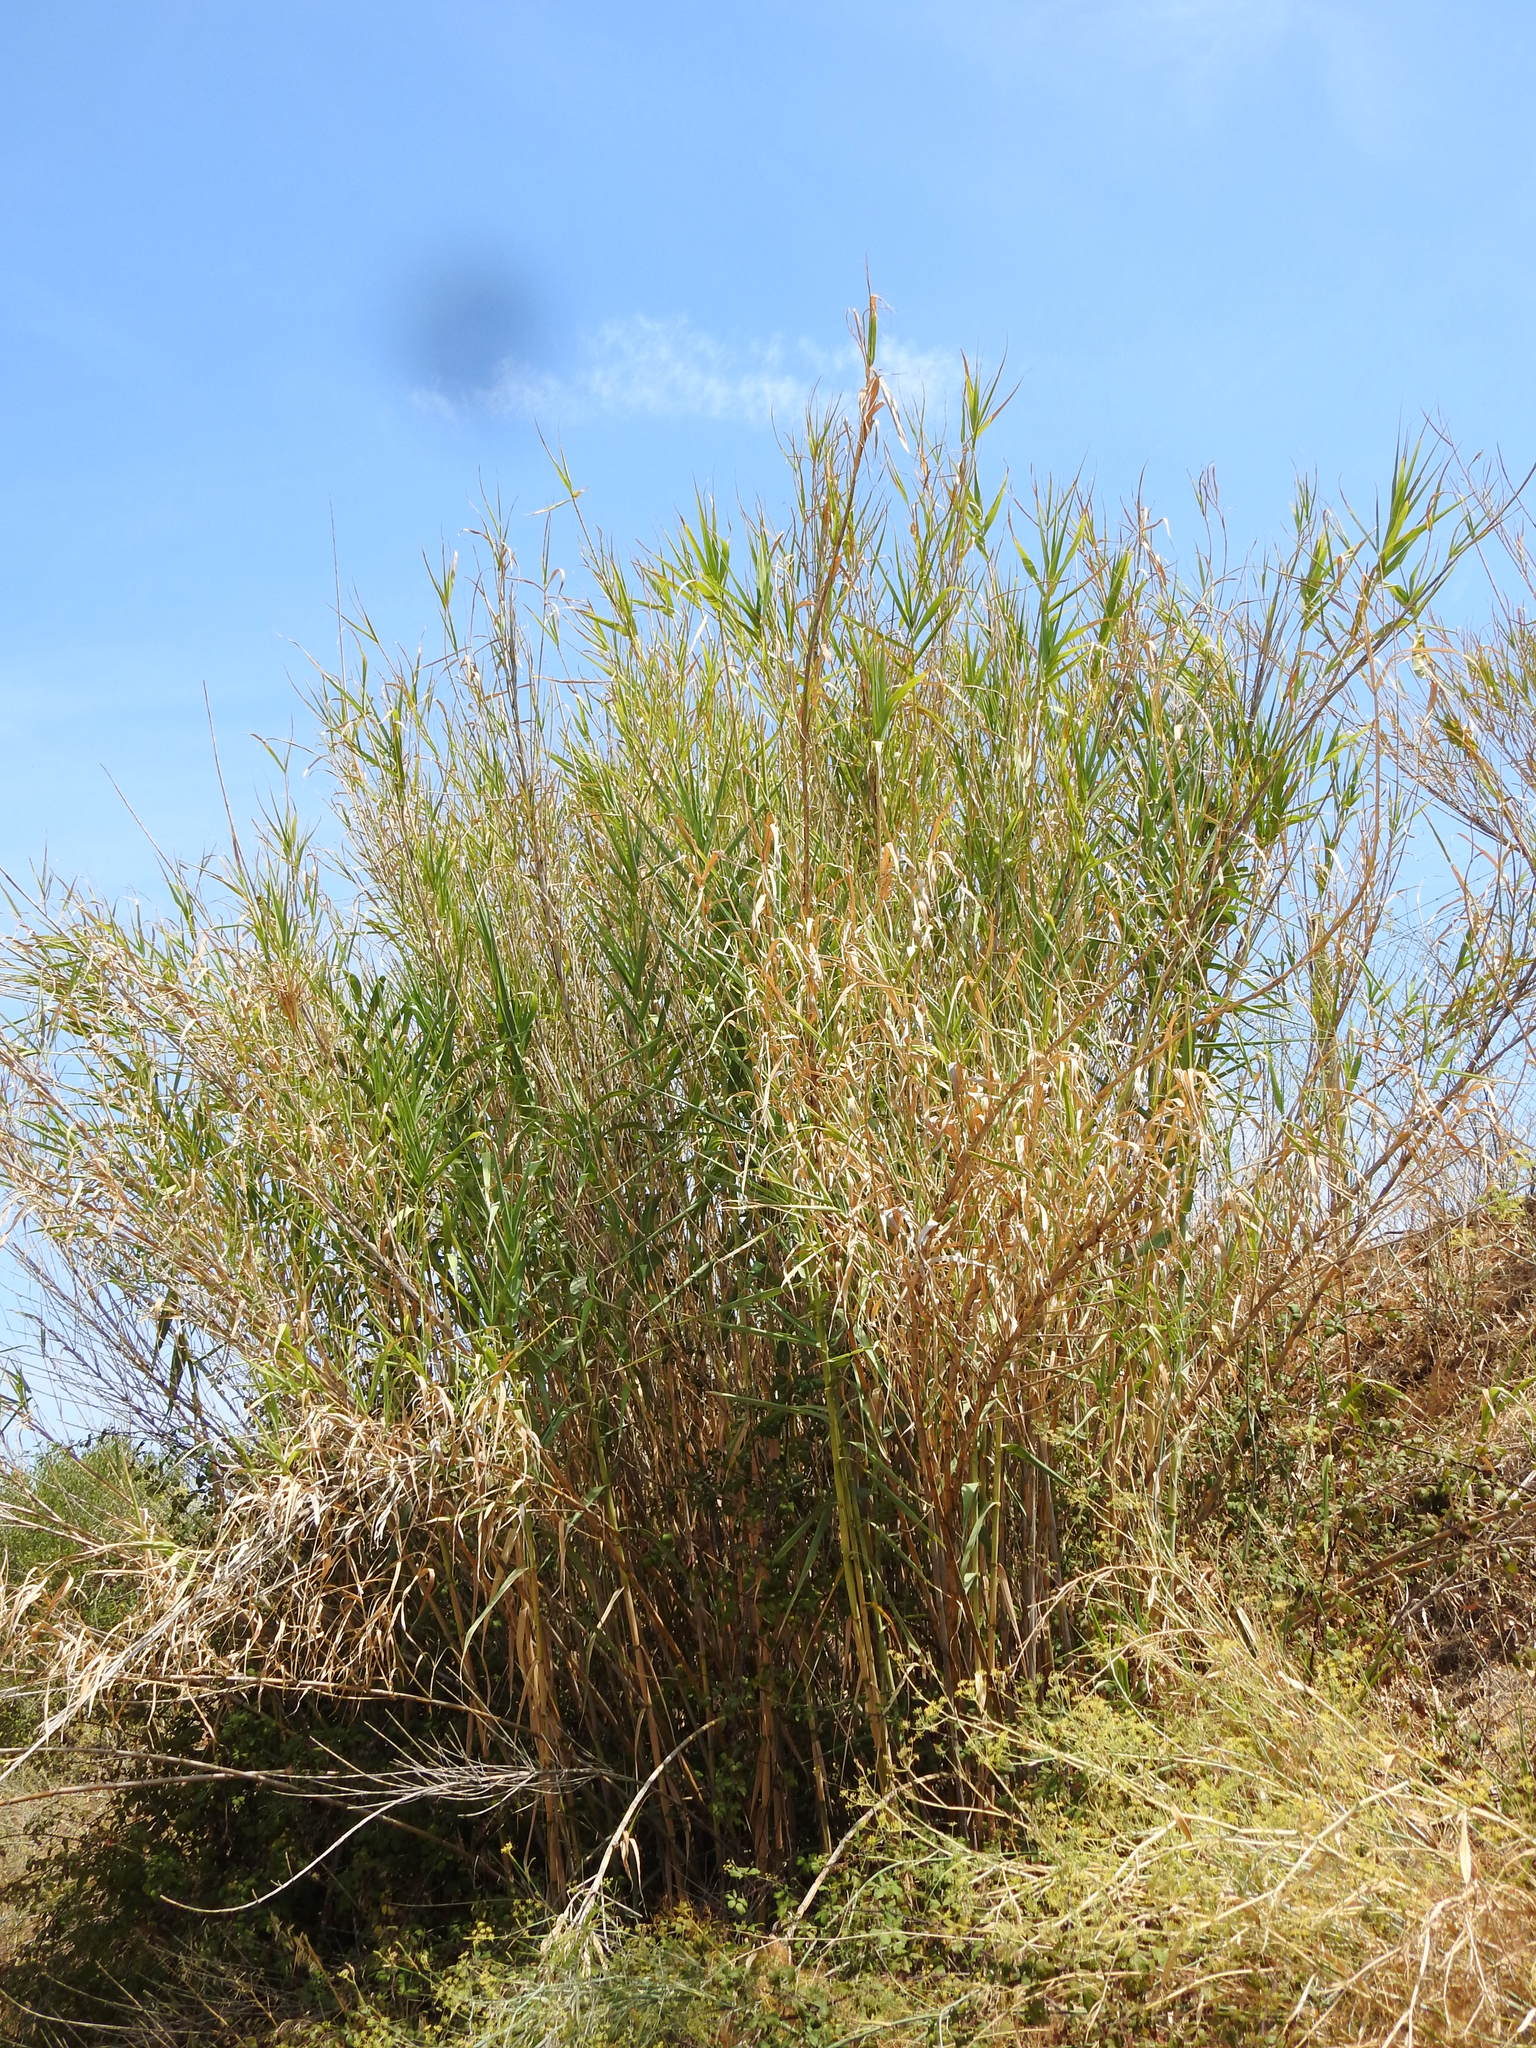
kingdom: Plantae
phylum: Tracheophyta
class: Liliopsida
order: Poales
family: Poaceae
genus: Arundo
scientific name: Arundo donax
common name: Giant reed
